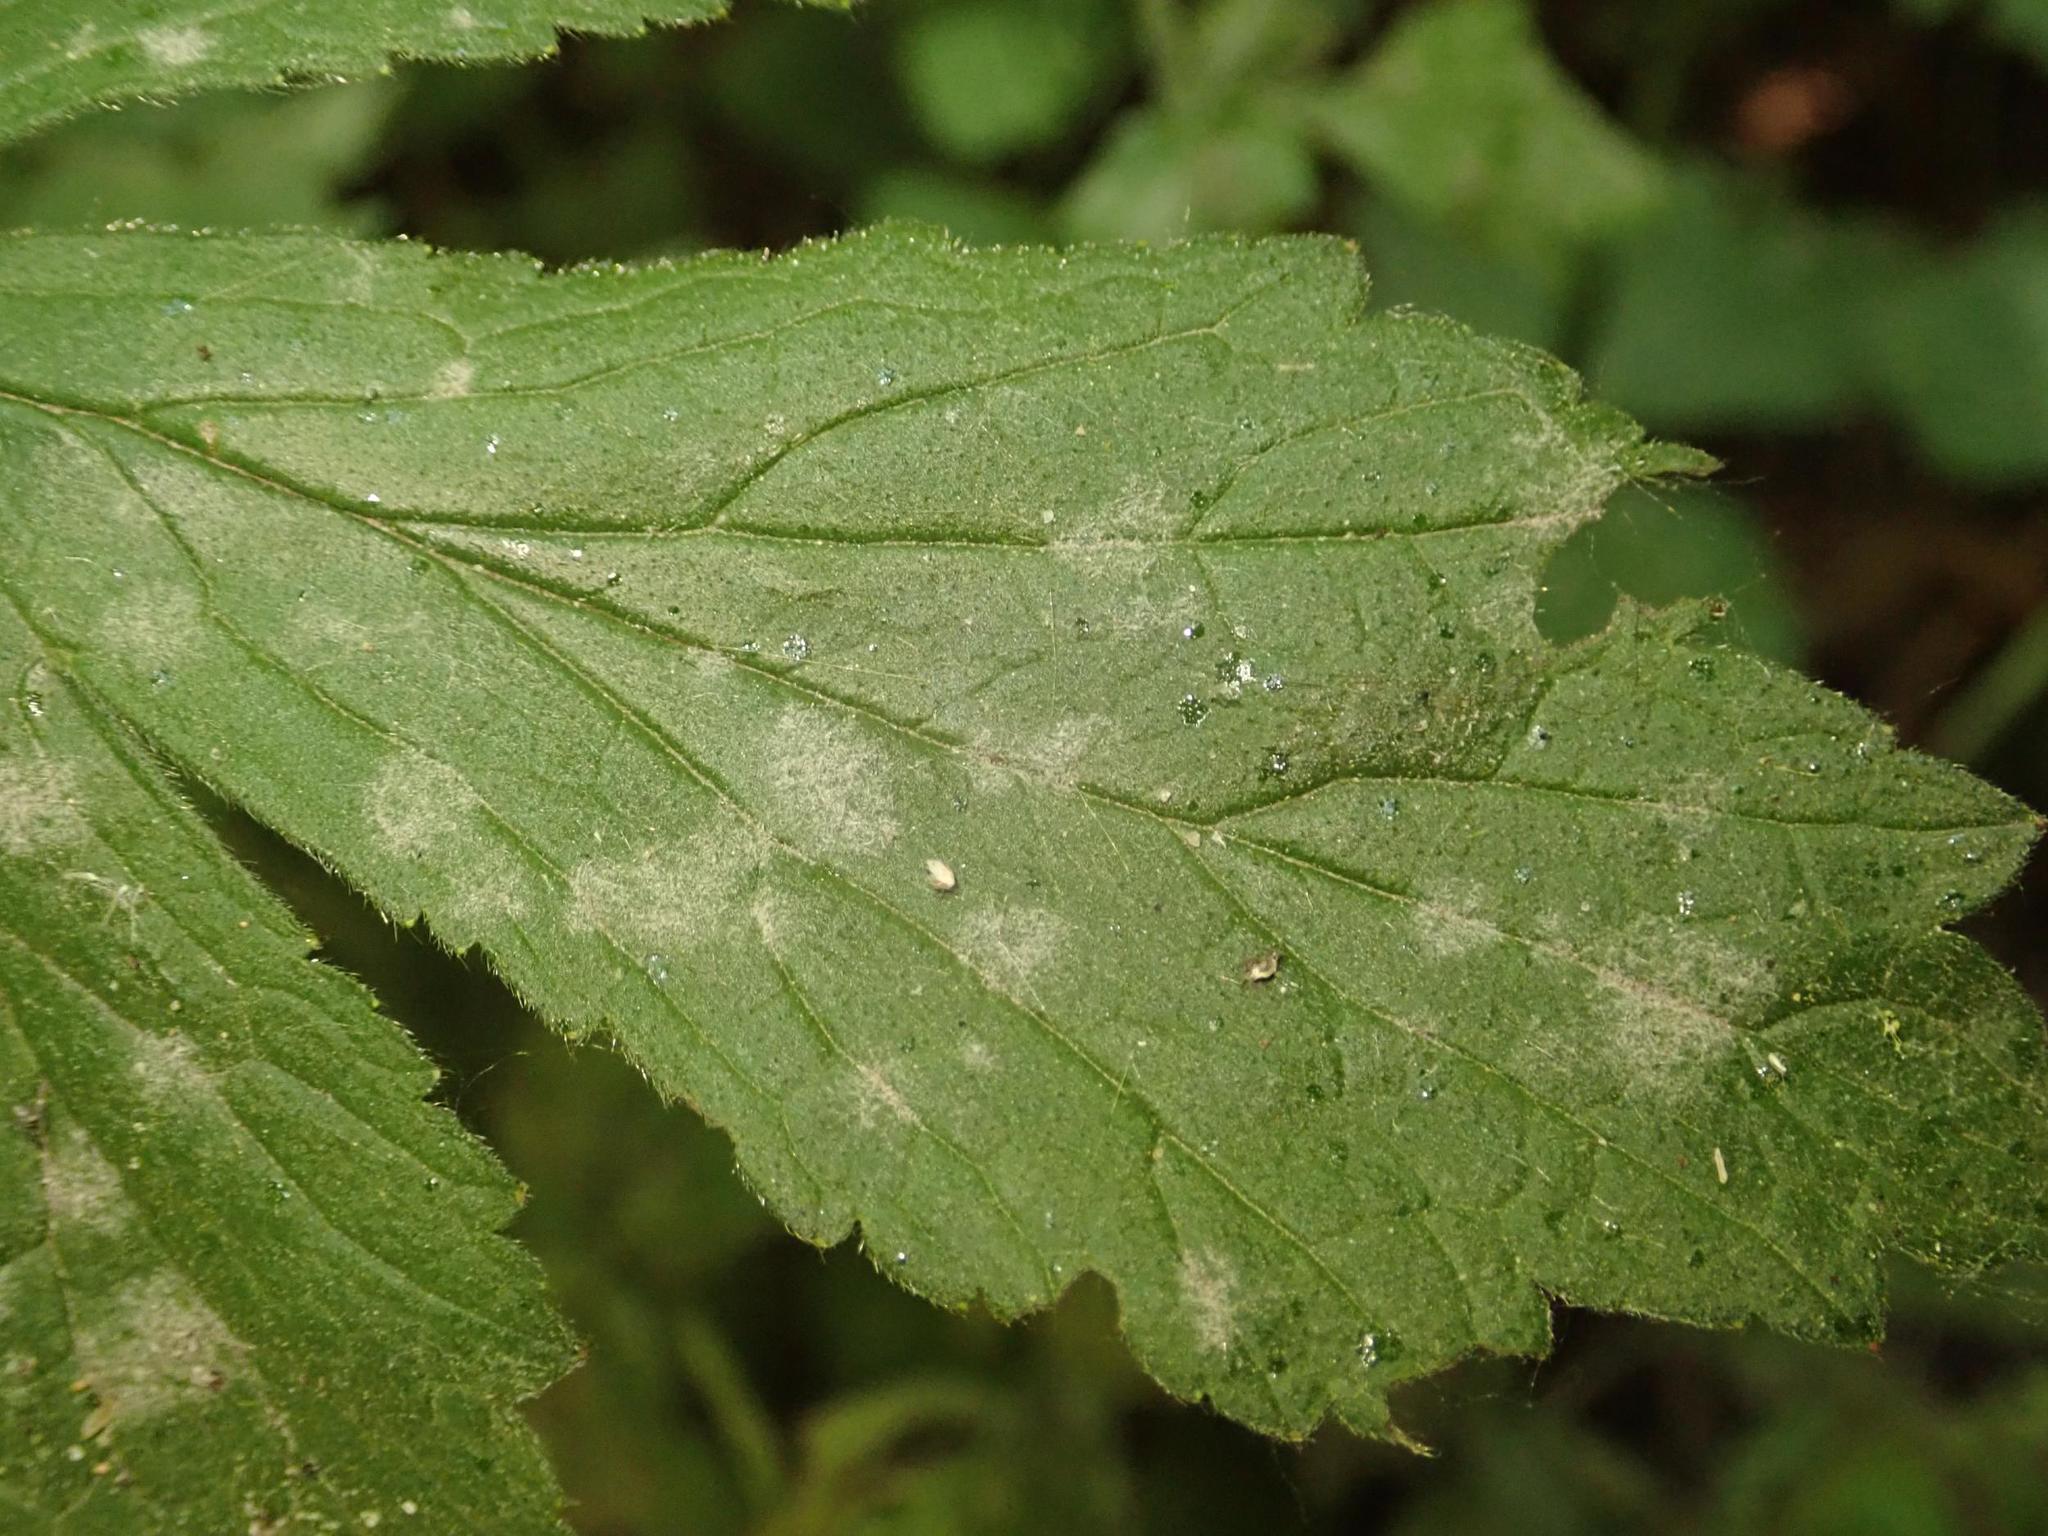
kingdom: Fungi
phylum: Ascomycota
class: Leotiomycetes
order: Helotiales
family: Erysiphaceae
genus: Podosphaera
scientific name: Podosphaera aphanis
